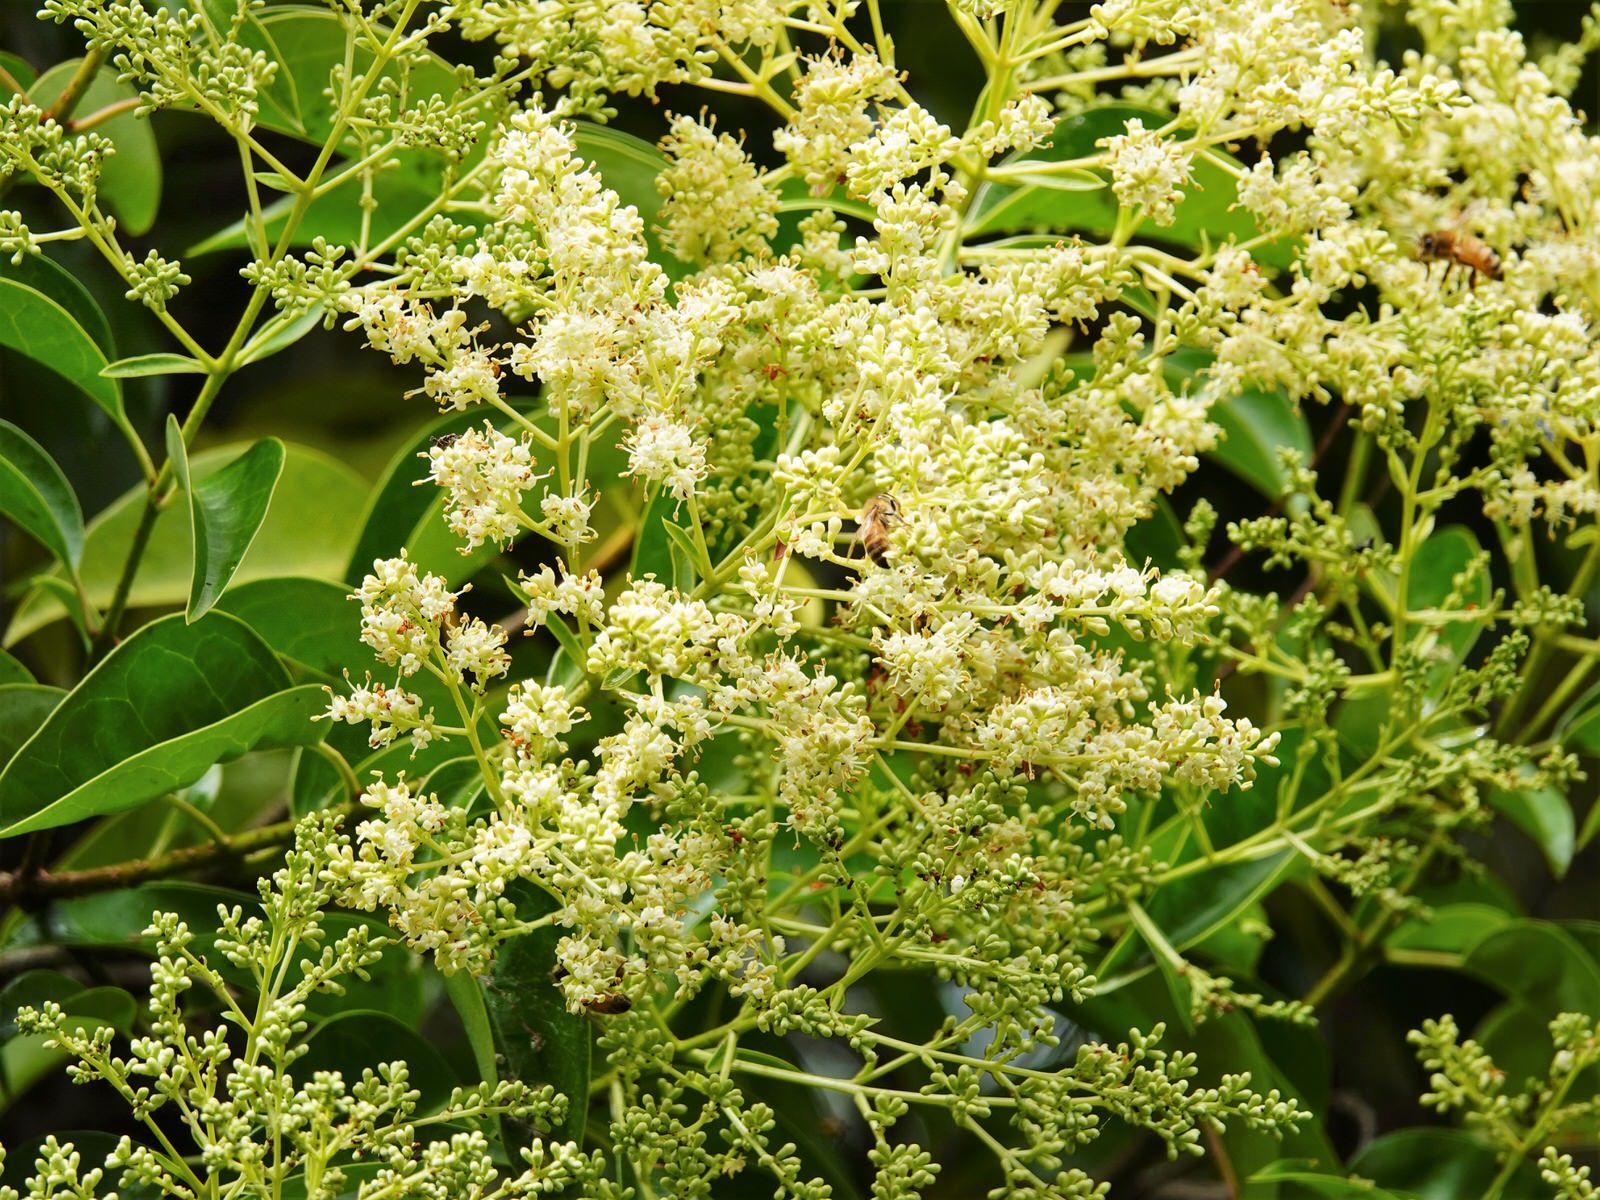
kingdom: Plantae
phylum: Tracheophyta
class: Magnoliopsida
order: Lamiales
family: Oleaceae
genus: Ligustrum
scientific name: Ligustrum lucidum
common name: Glossy privet
